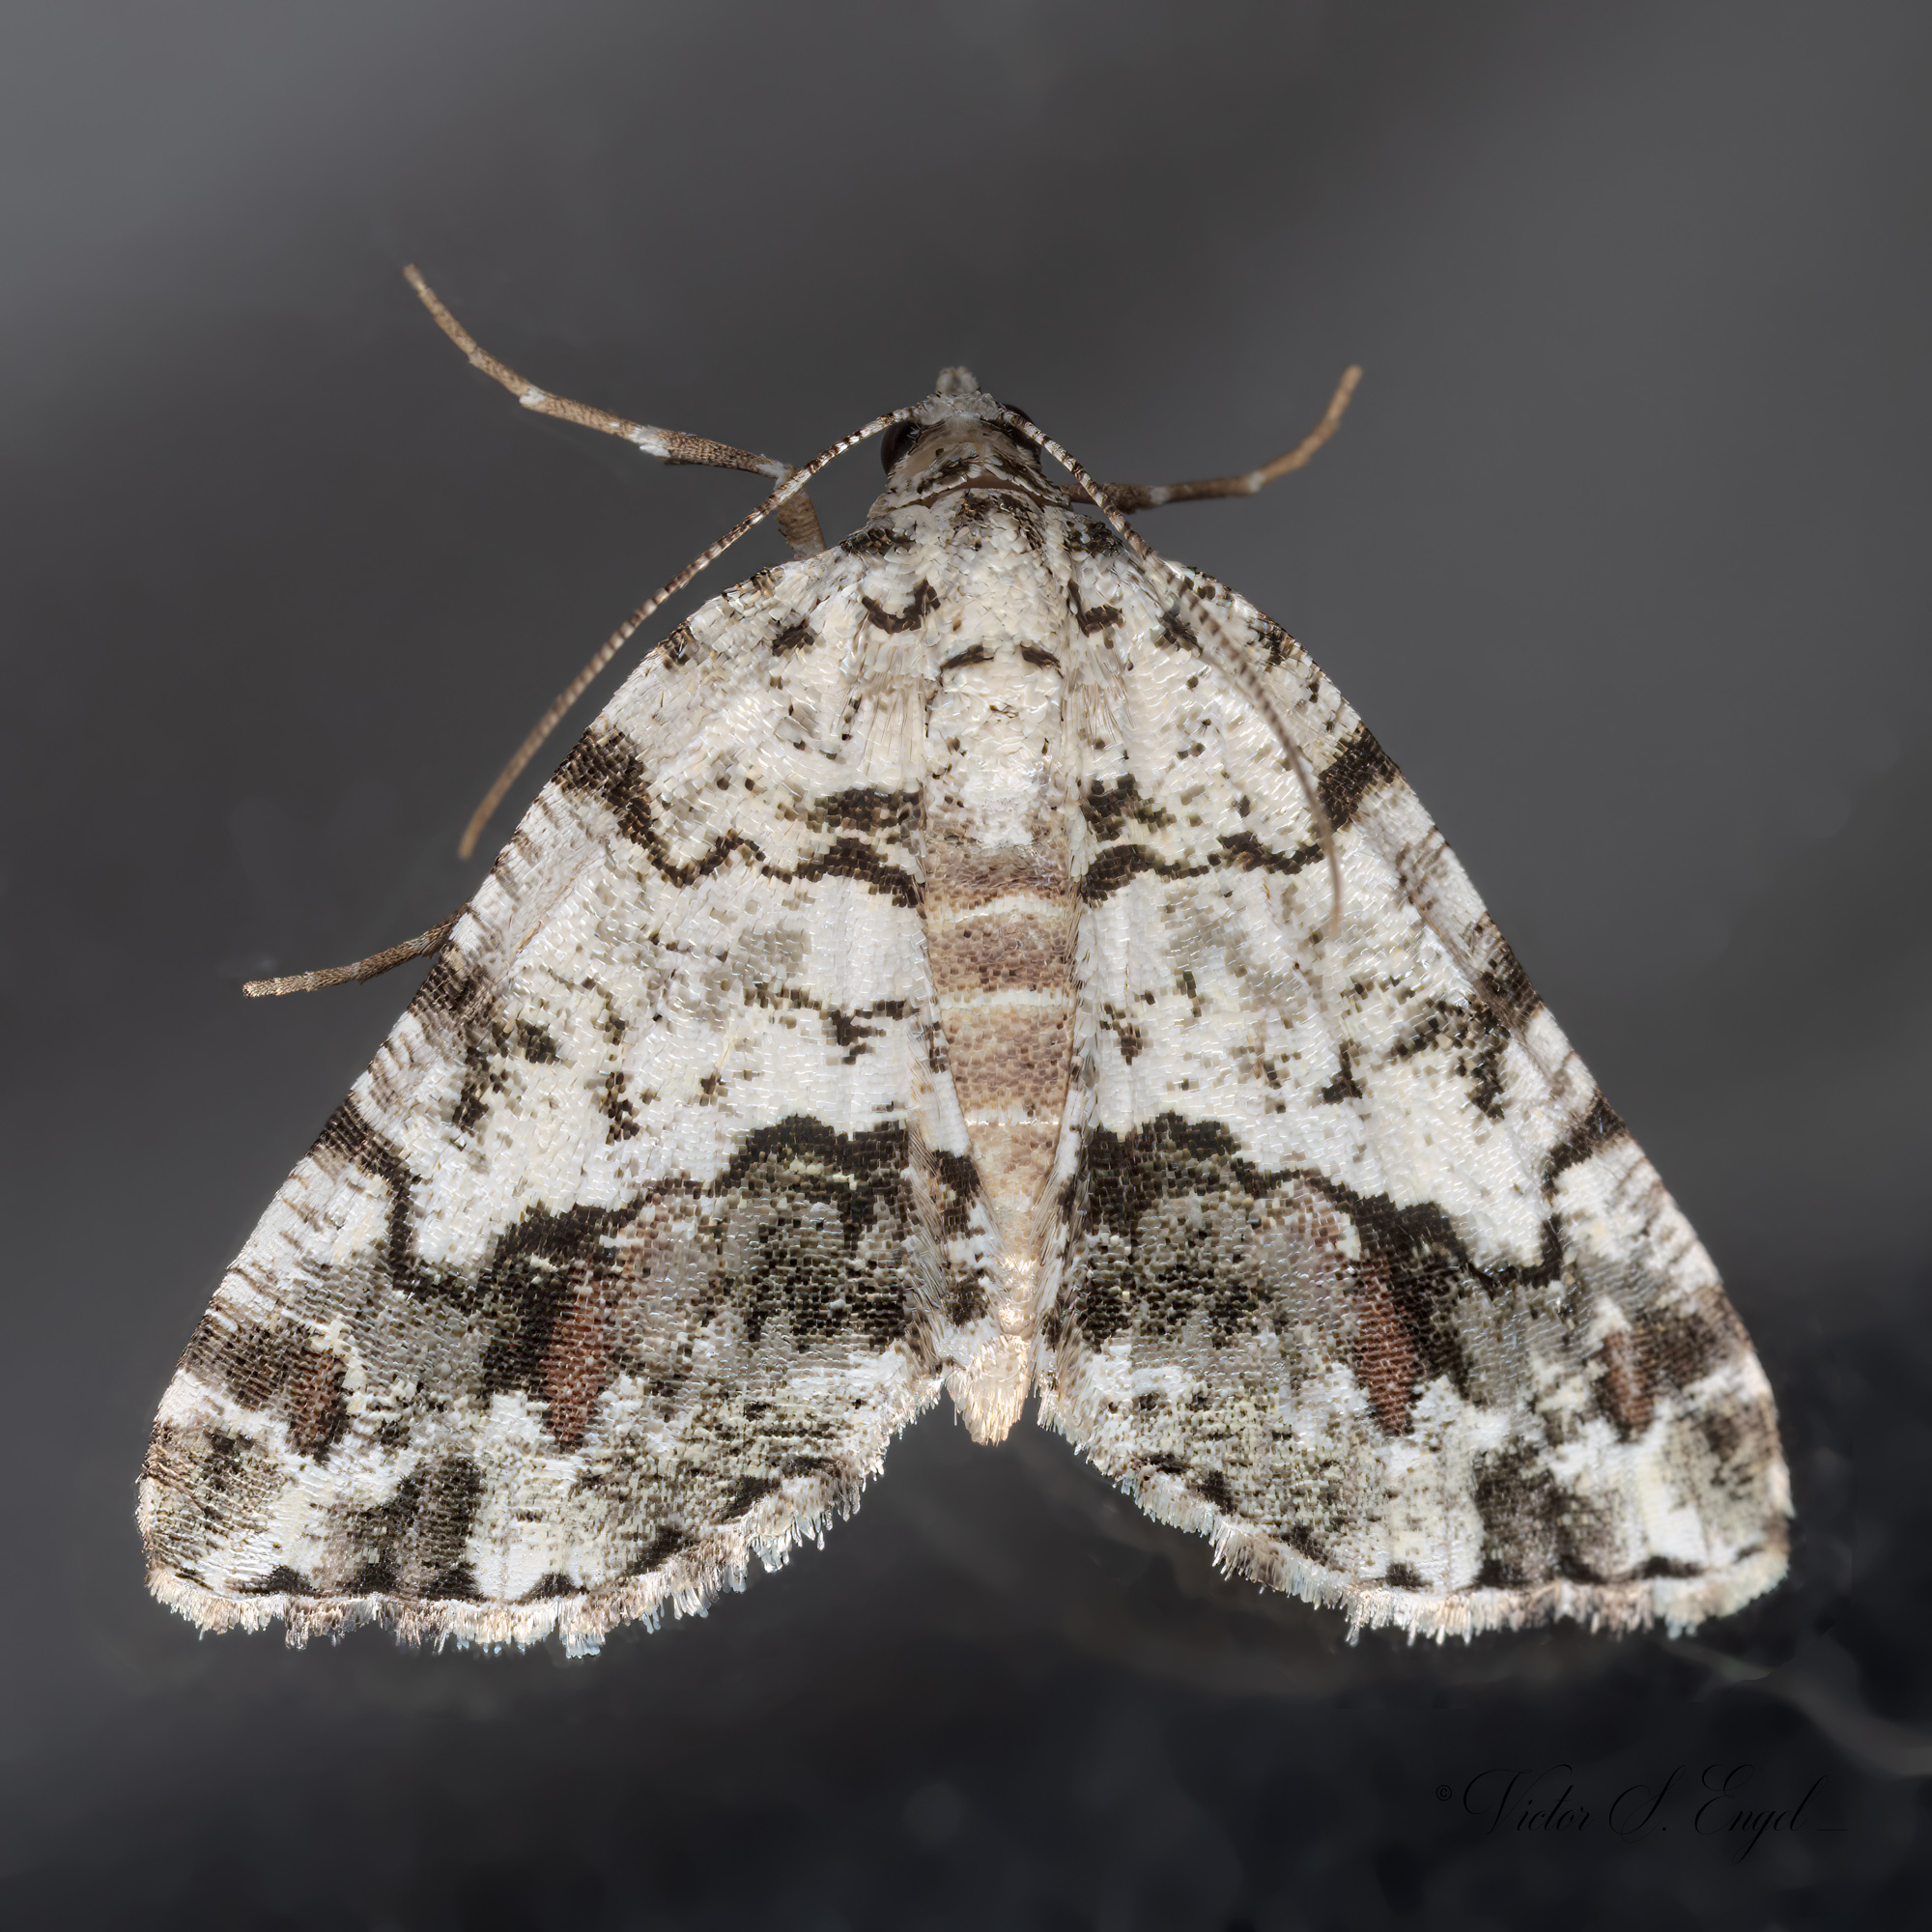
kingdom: Animalia
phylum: Arthropoda
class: Insecta
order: Lepidoptera
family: Geometridae
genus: Macaria
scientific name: Macaria graphidaria
